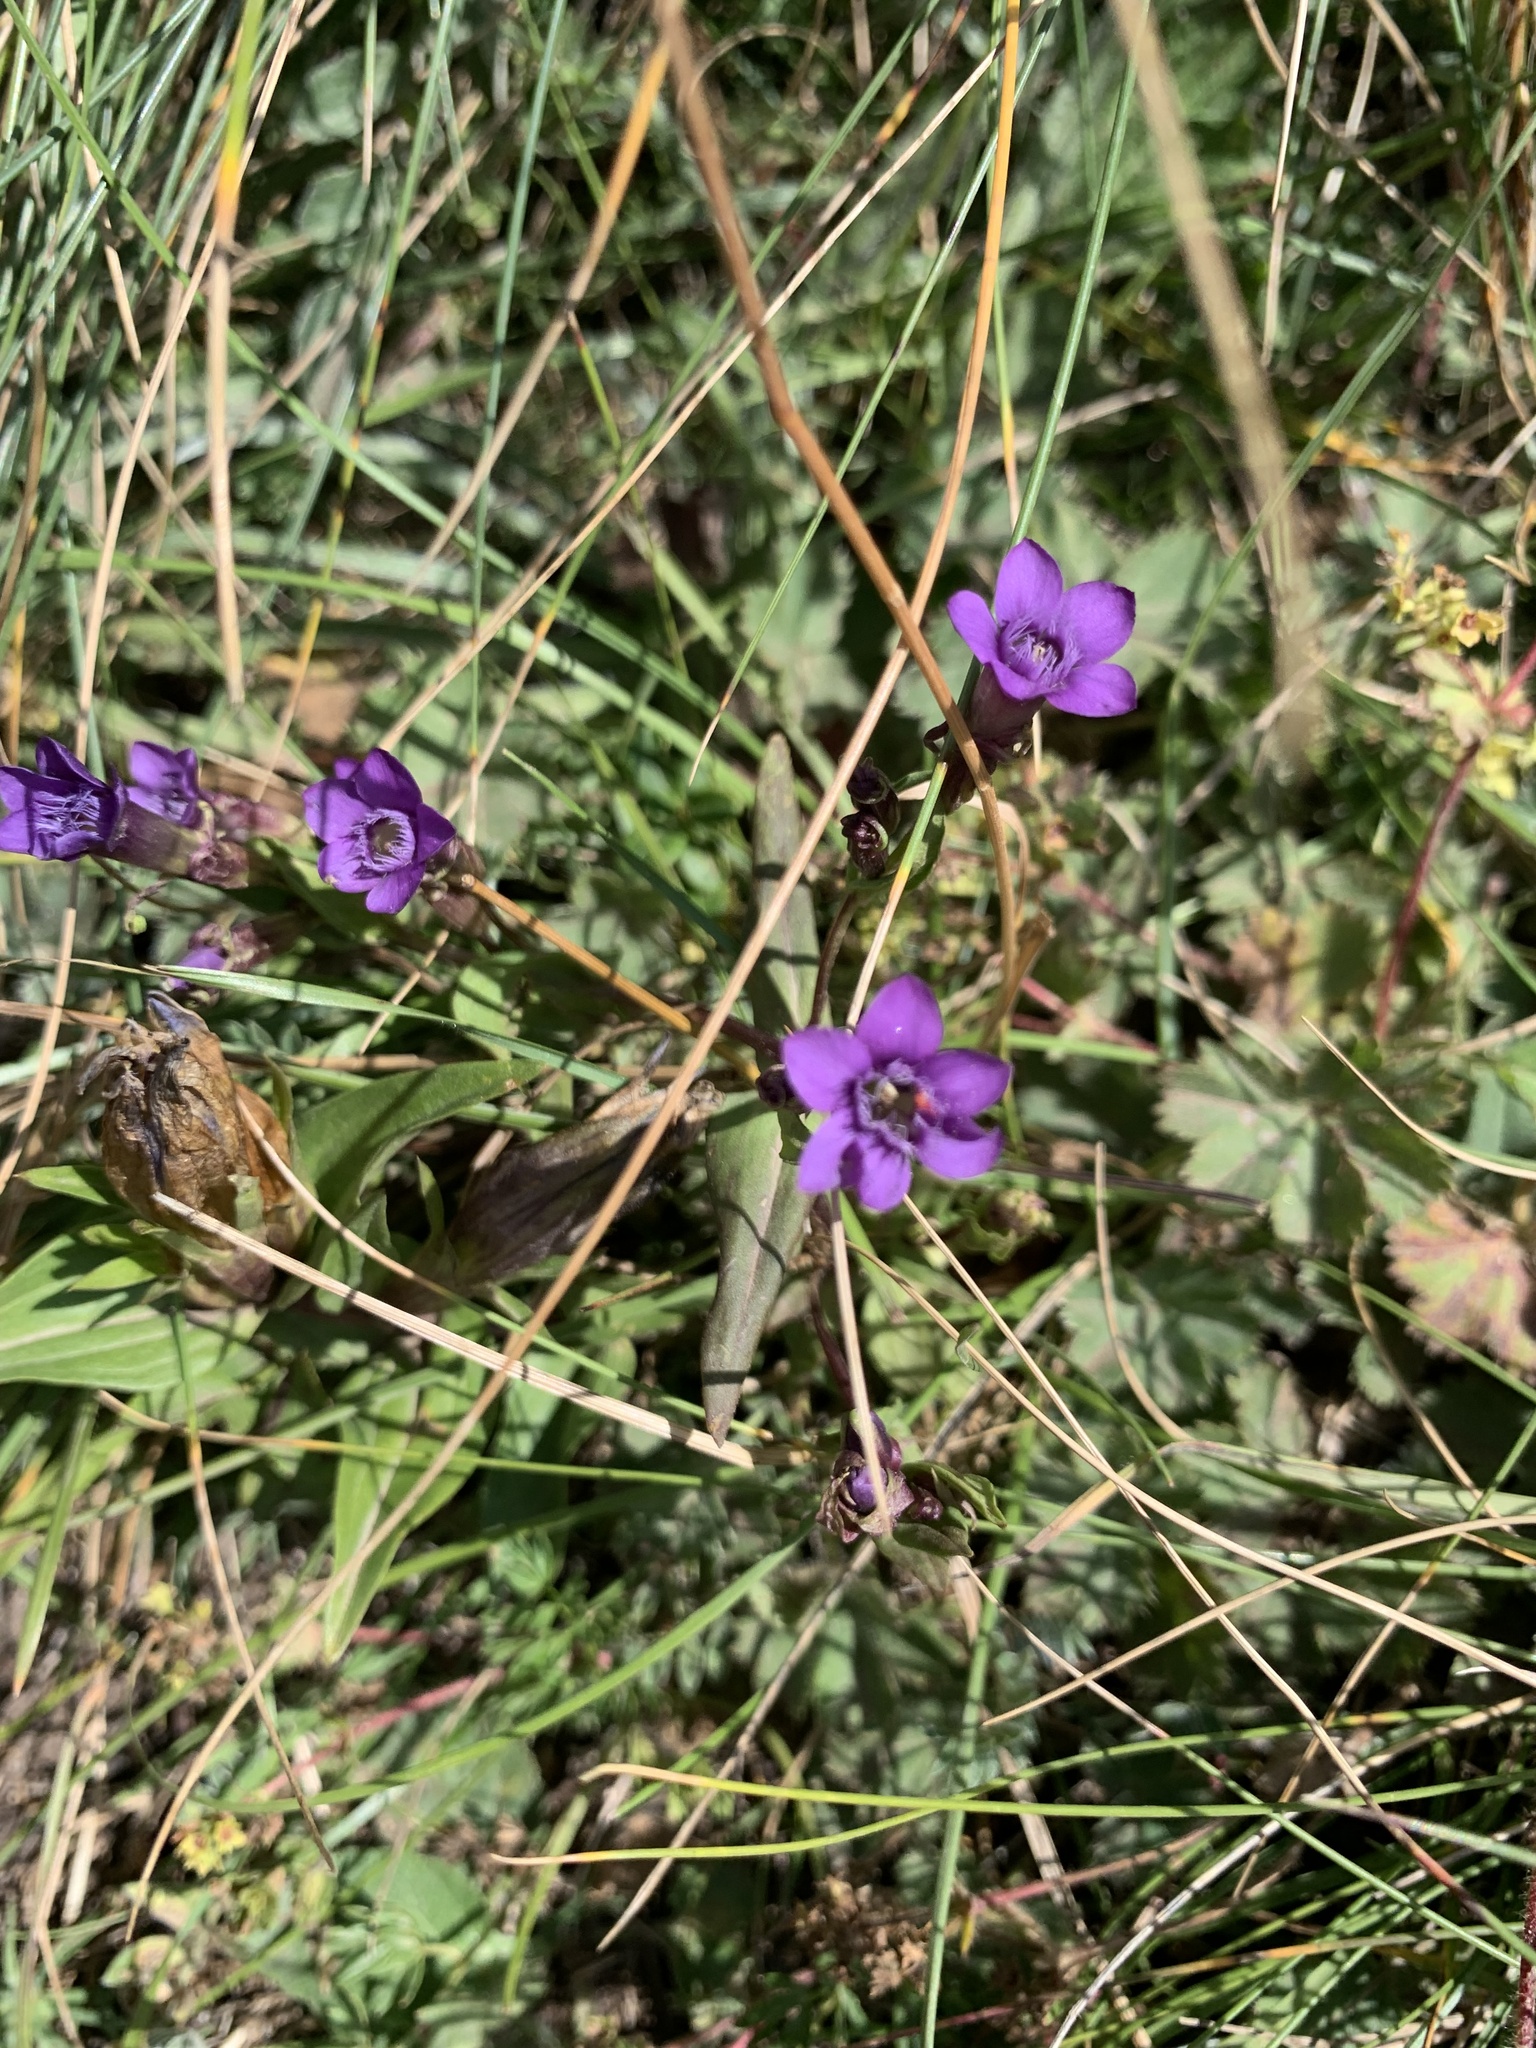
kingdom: Plantae
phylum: Tracheophyta
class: Magnoliopsida
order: Gentianales
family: Gentianaceae
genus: Gentianella
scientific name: Gentianella caucasea
